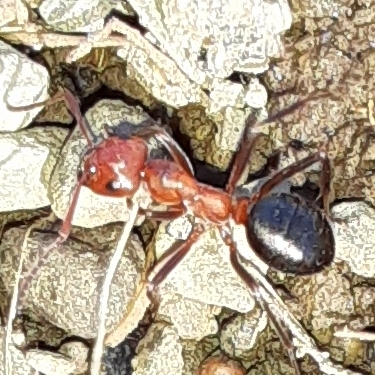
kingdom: Animalia
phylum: Arthropoda
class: Insecta
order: Hymenoptera
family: Formicidae
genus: Formica
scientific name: Formica exsectoides
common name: Allegheny mound ant
